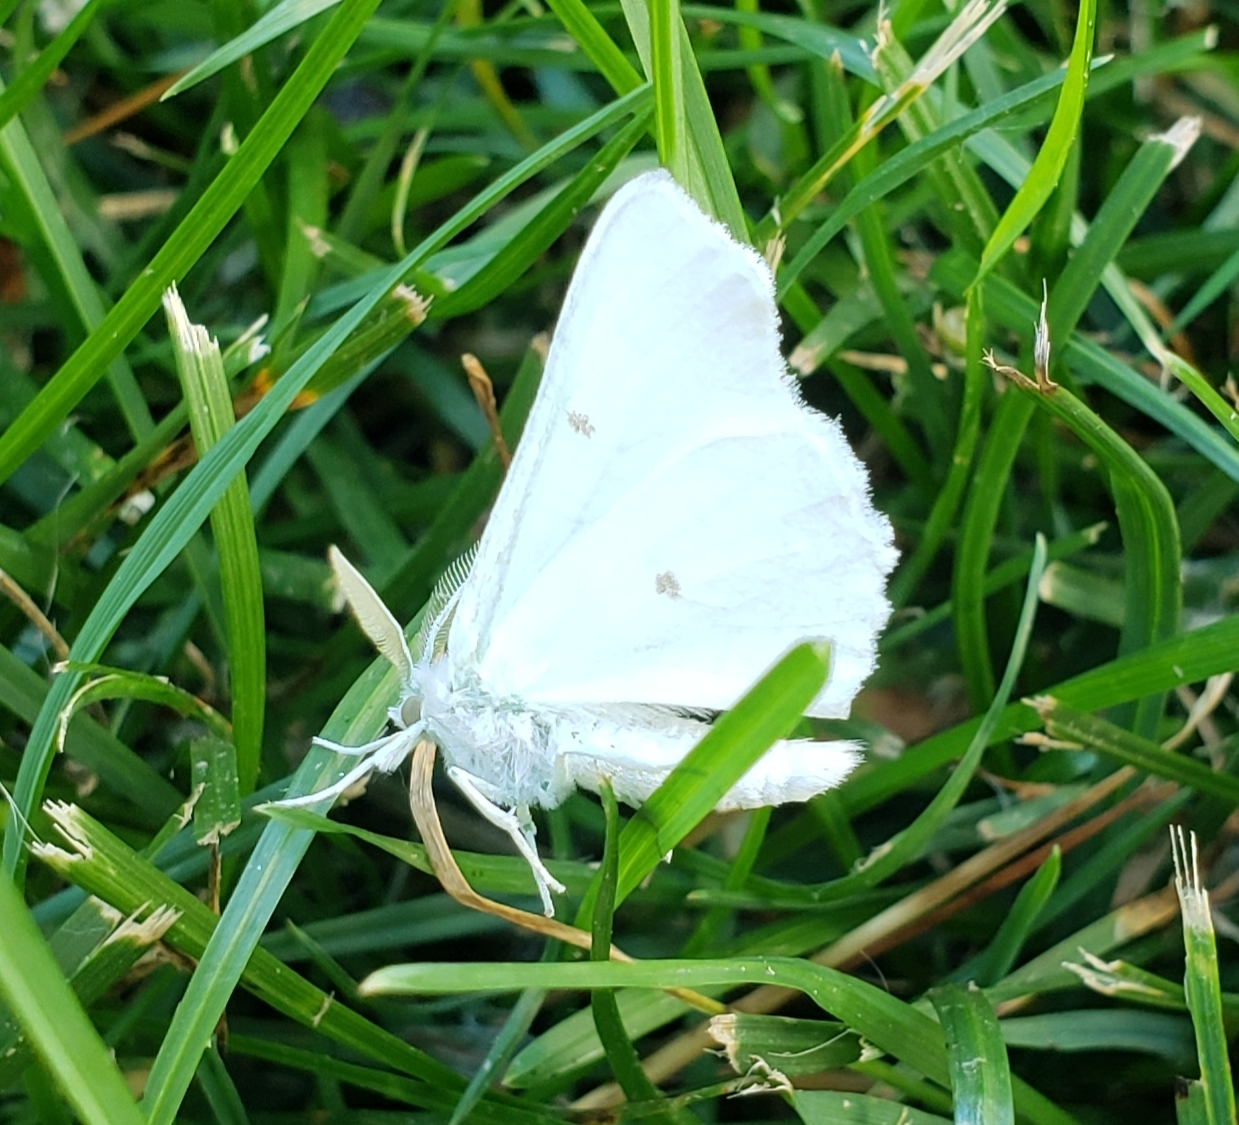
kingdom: Animalia
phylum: Arthropoda
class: Insecta
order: Lepidoptera
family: Geometridae
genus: Ennomos
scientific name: Ennomos subsignaria
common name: Elm spanworm
